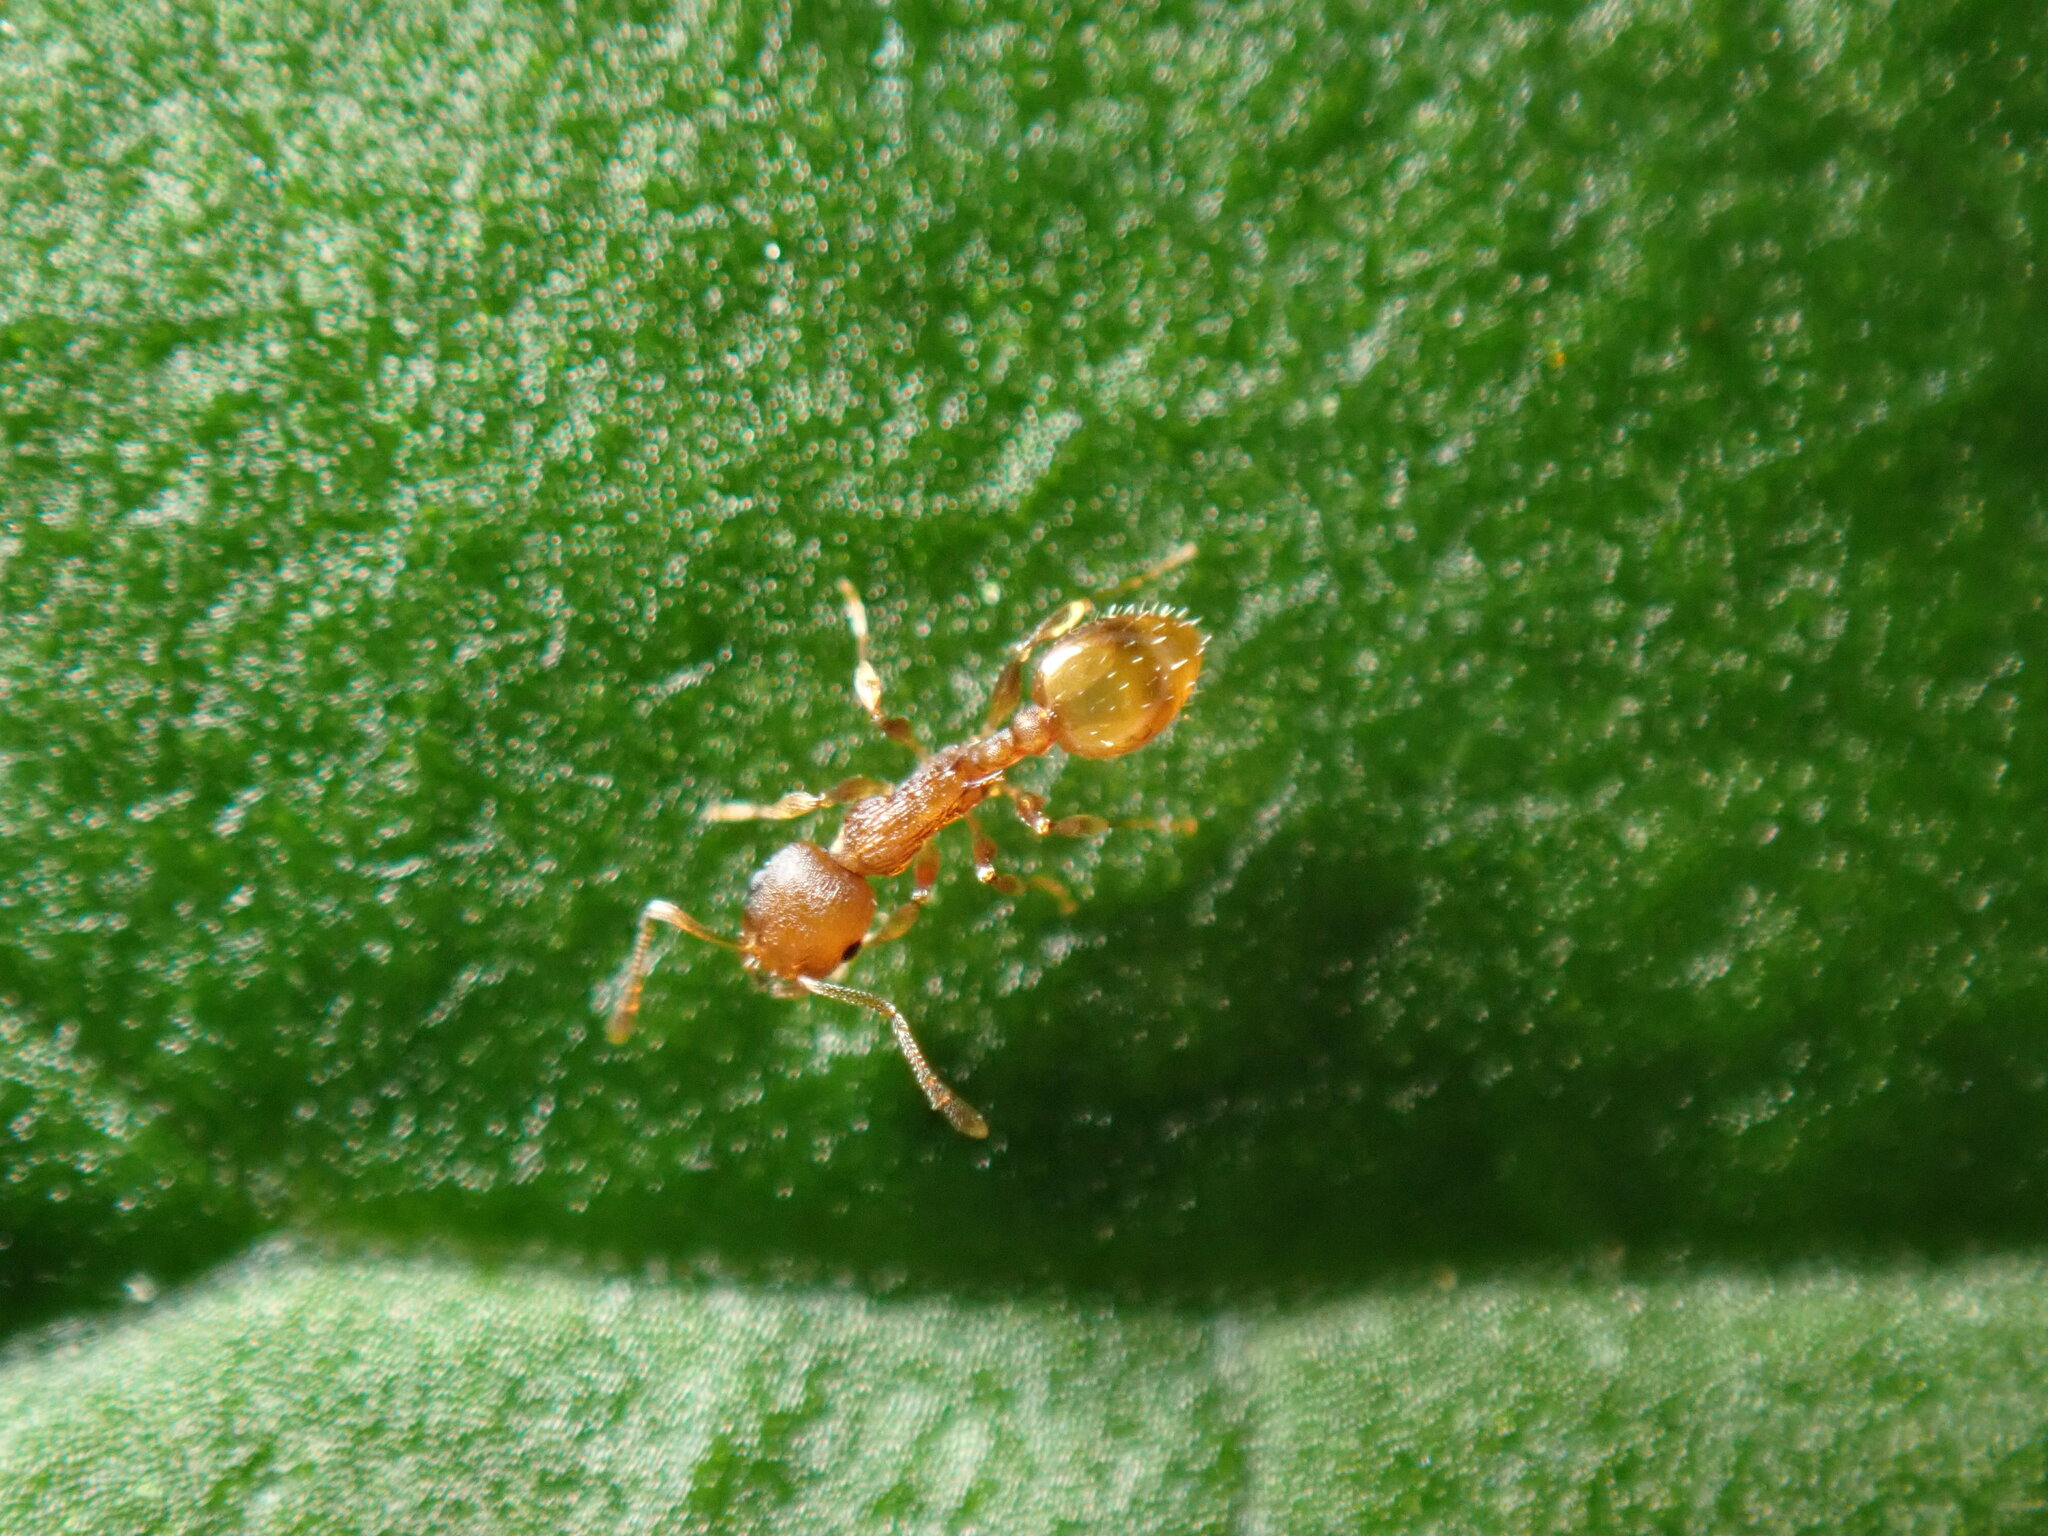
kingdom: Animalia
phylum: Arthropoda
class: Insecta
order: Hymenoptera
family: Formicidae
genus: Temnothorax
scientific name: Temnothorax curvispinosus
